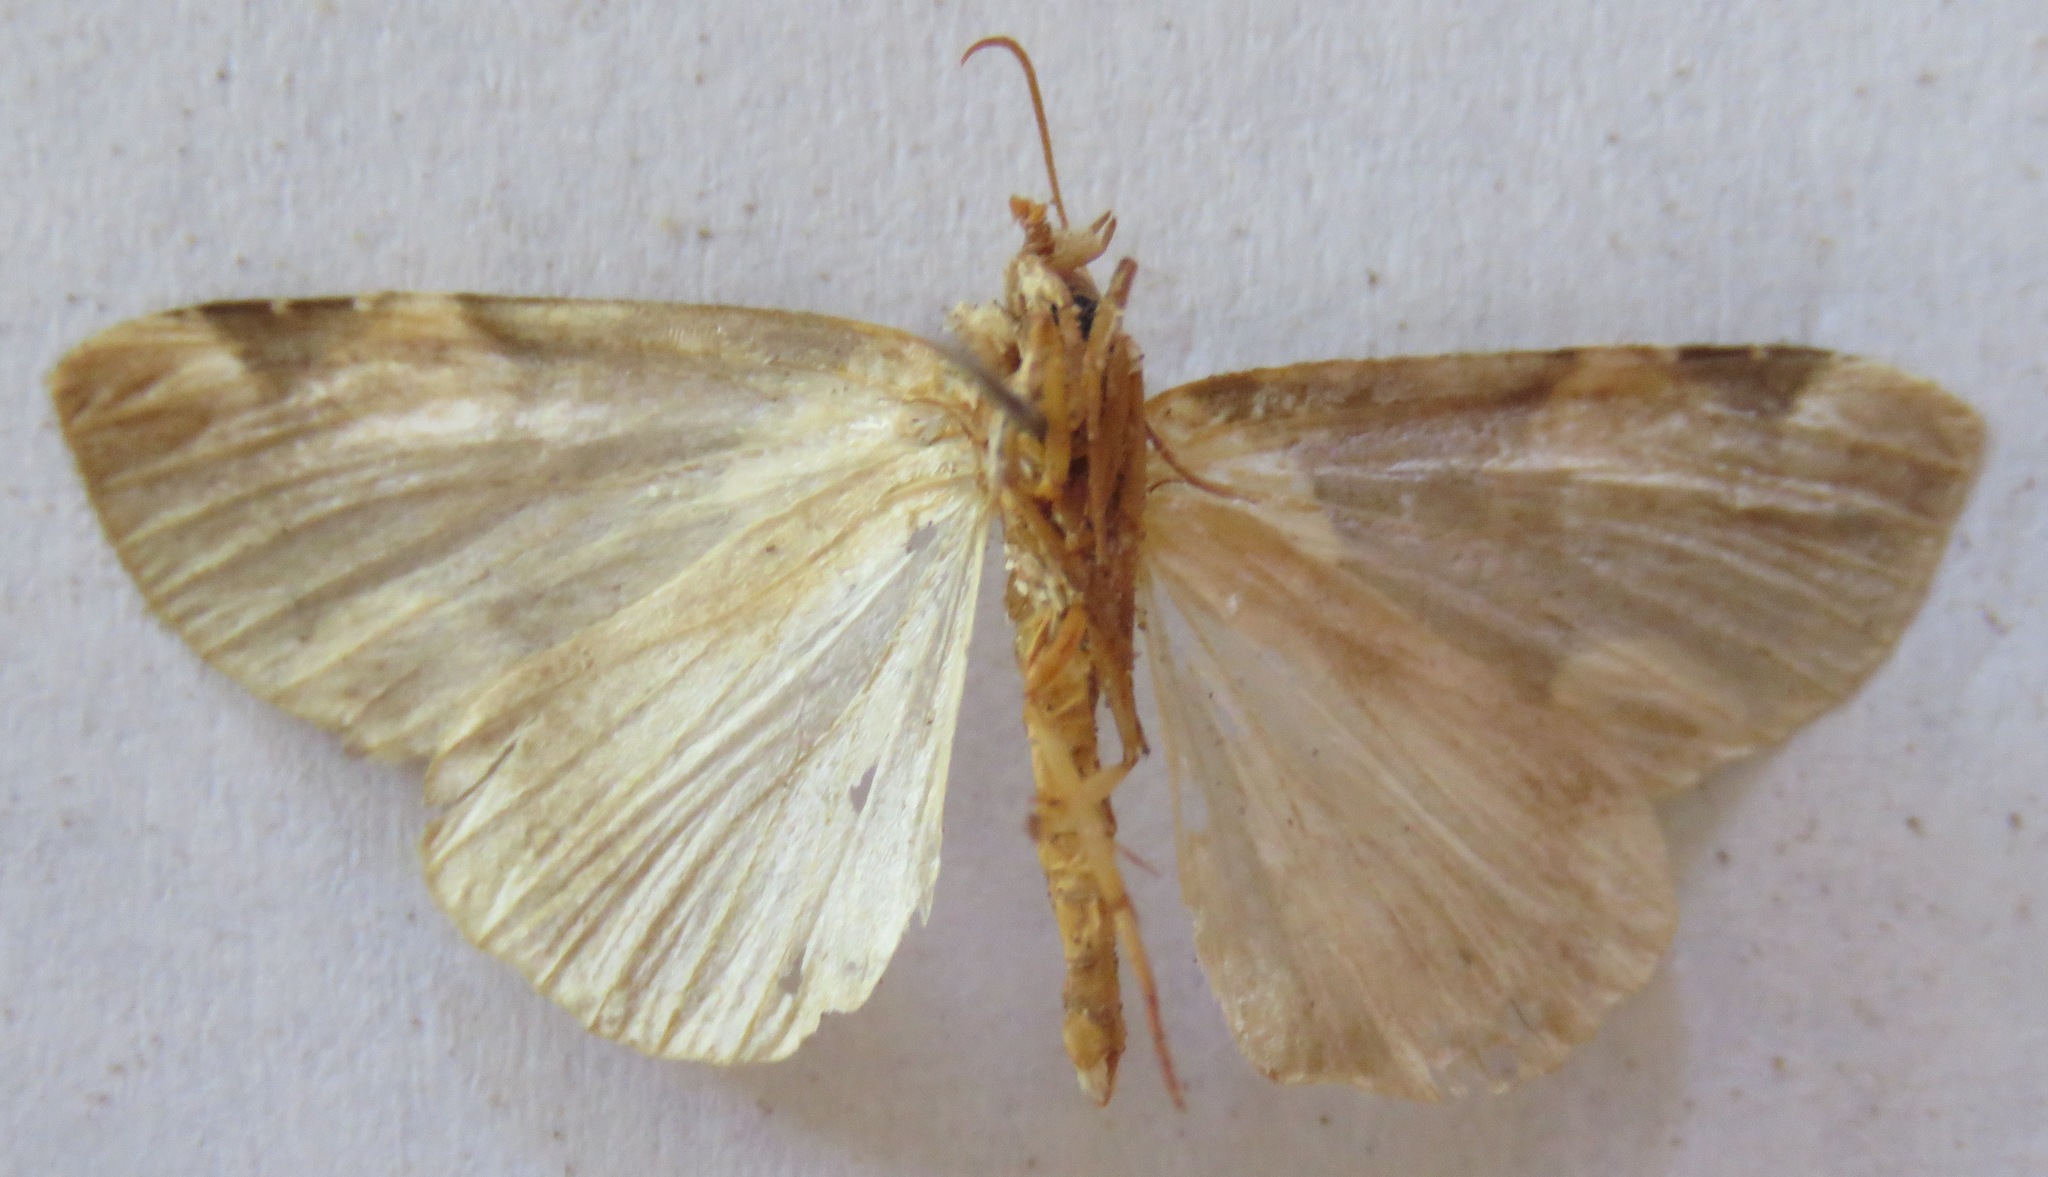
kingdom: Animalia
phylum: Arthropoda
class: Insecta
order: Lepidoptera
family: Drepanidae
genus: Thyatira
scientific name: Thyatira batis
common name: Peach blossom
